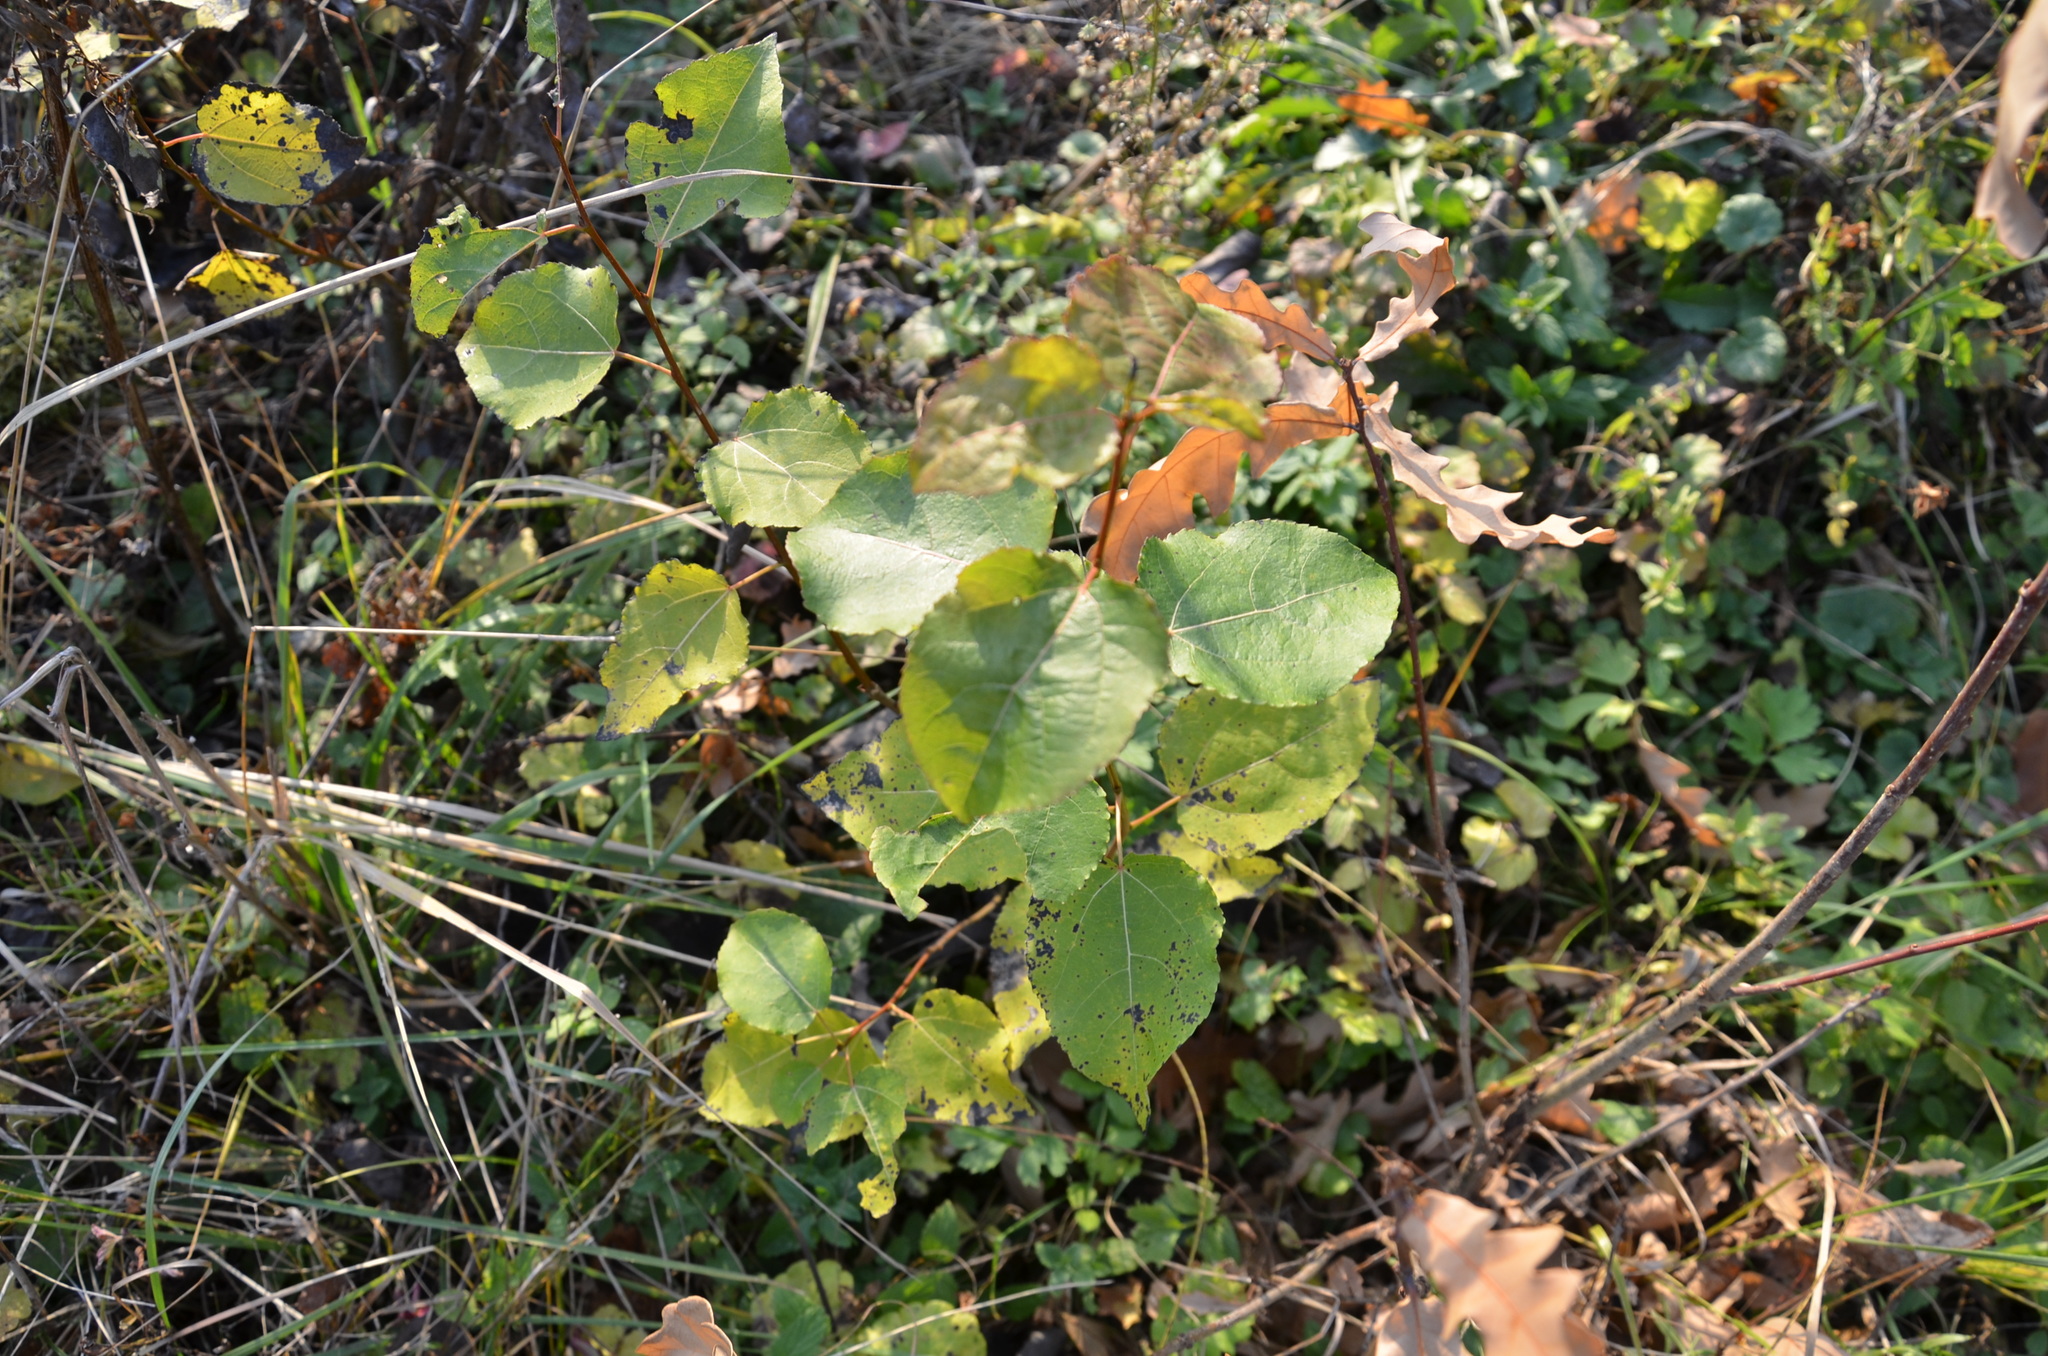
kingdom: Plantae
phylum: Tracheophyta
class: Magnoliopsida
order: Malpighiales
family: Salicaceae
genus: Populus
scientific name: Populus tremula
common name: European aspen
